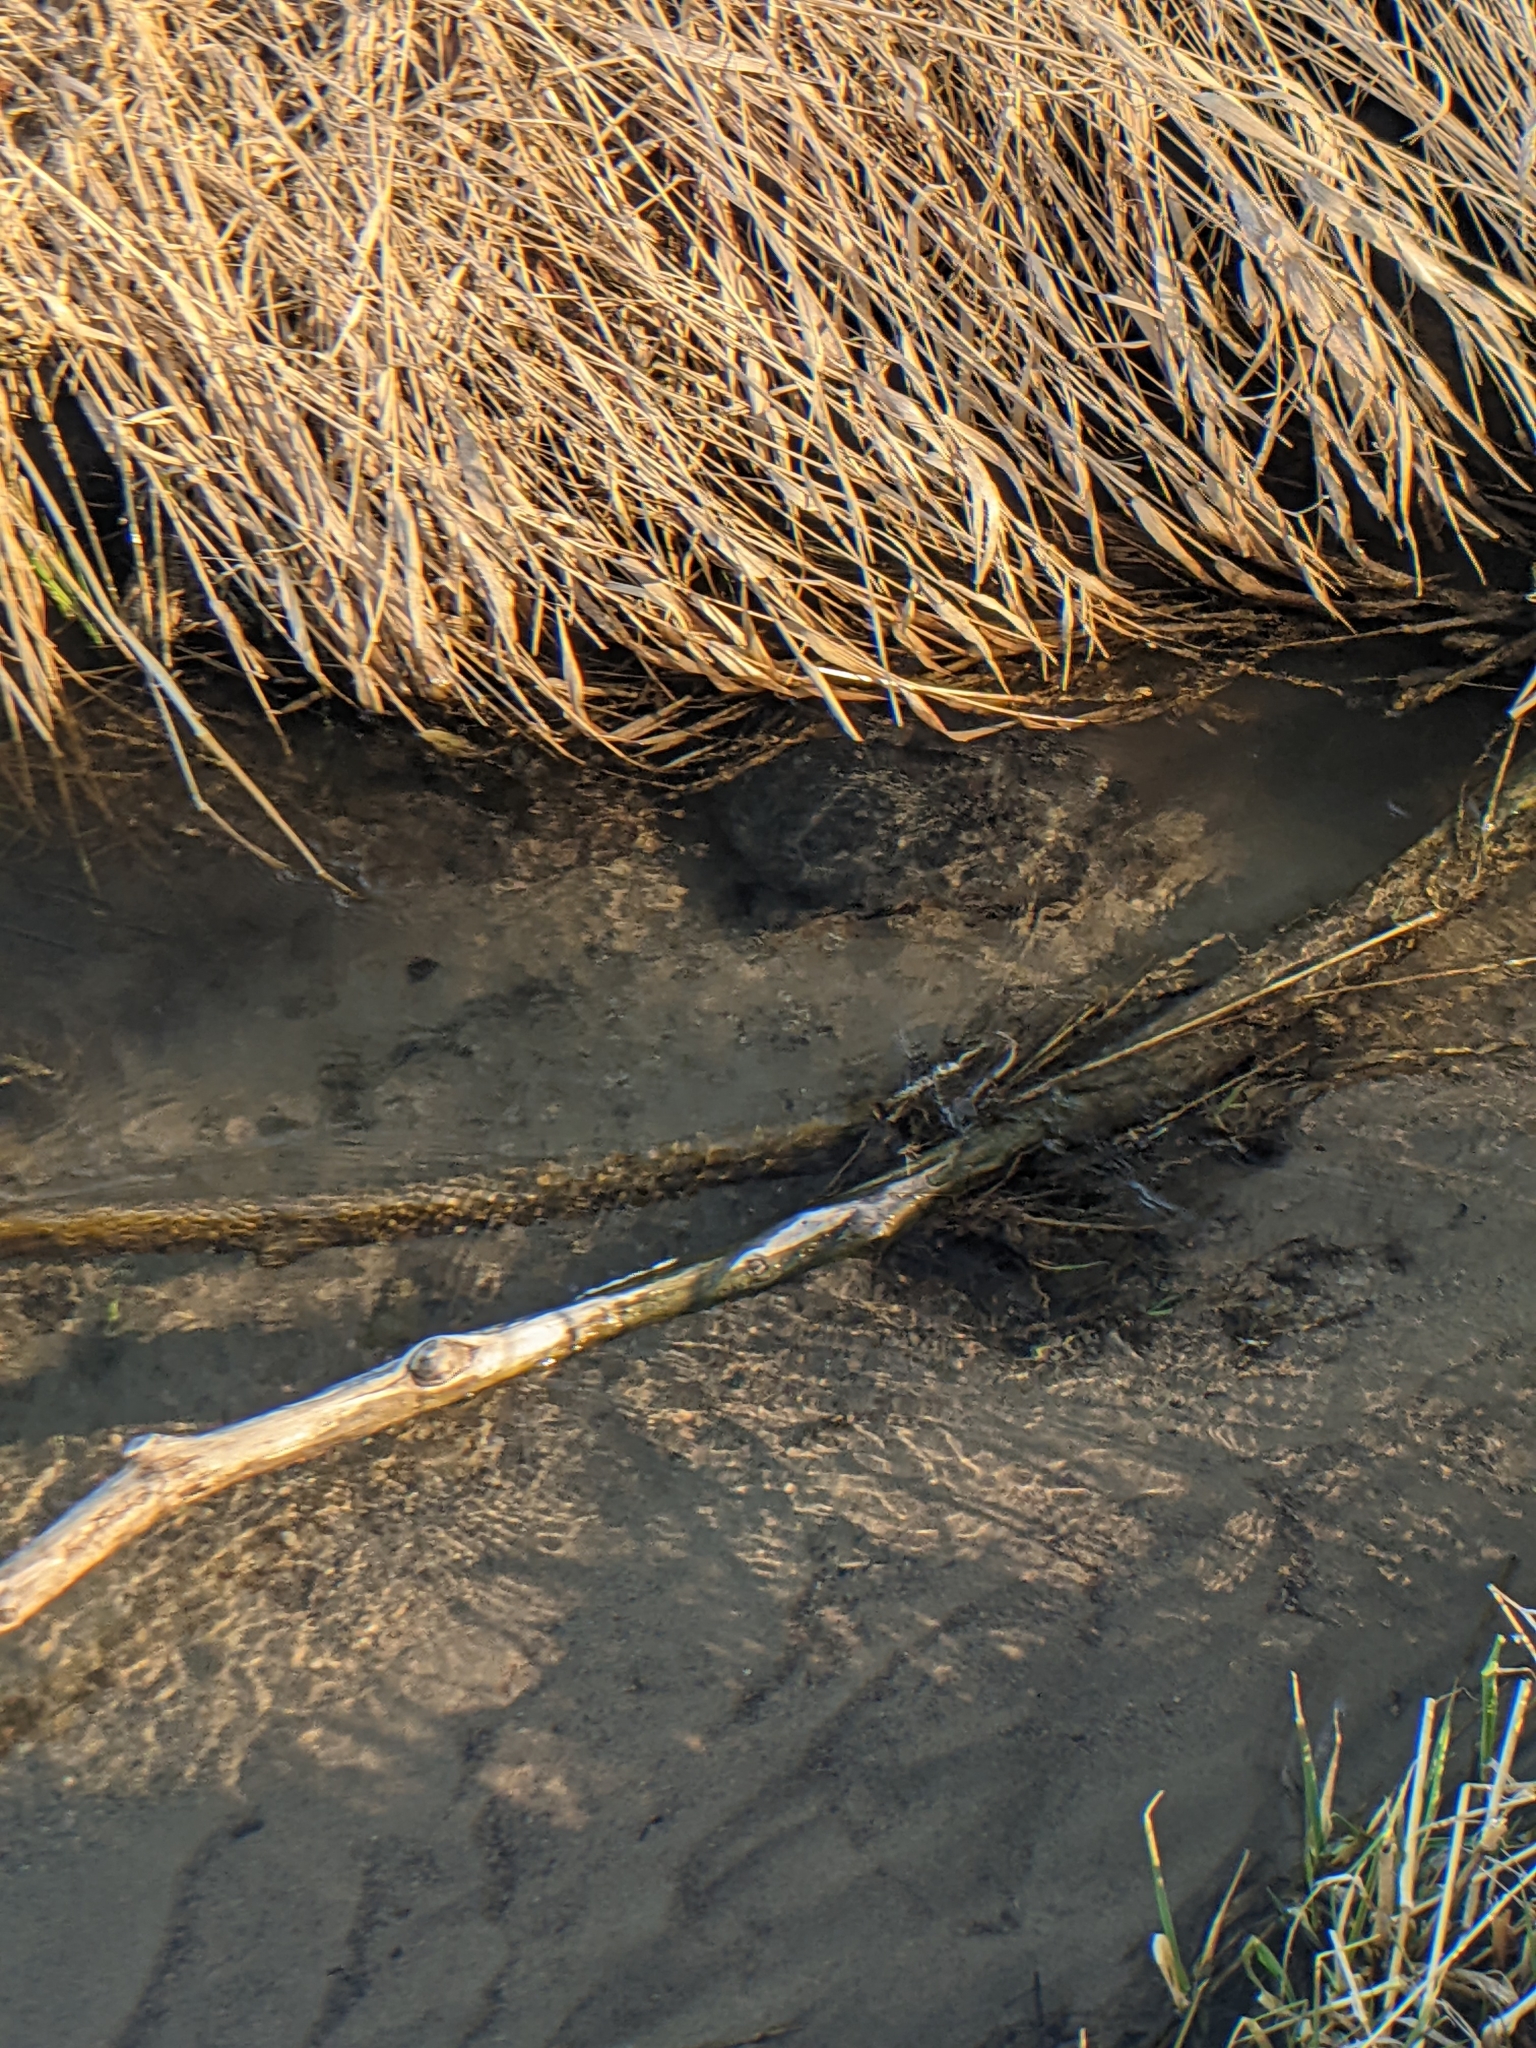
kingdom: Animalia
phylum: Chordata
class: Testudines
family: Chelydridae
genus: Chelydra
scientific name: Chelydra serpentina
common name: Common snapping turtle
